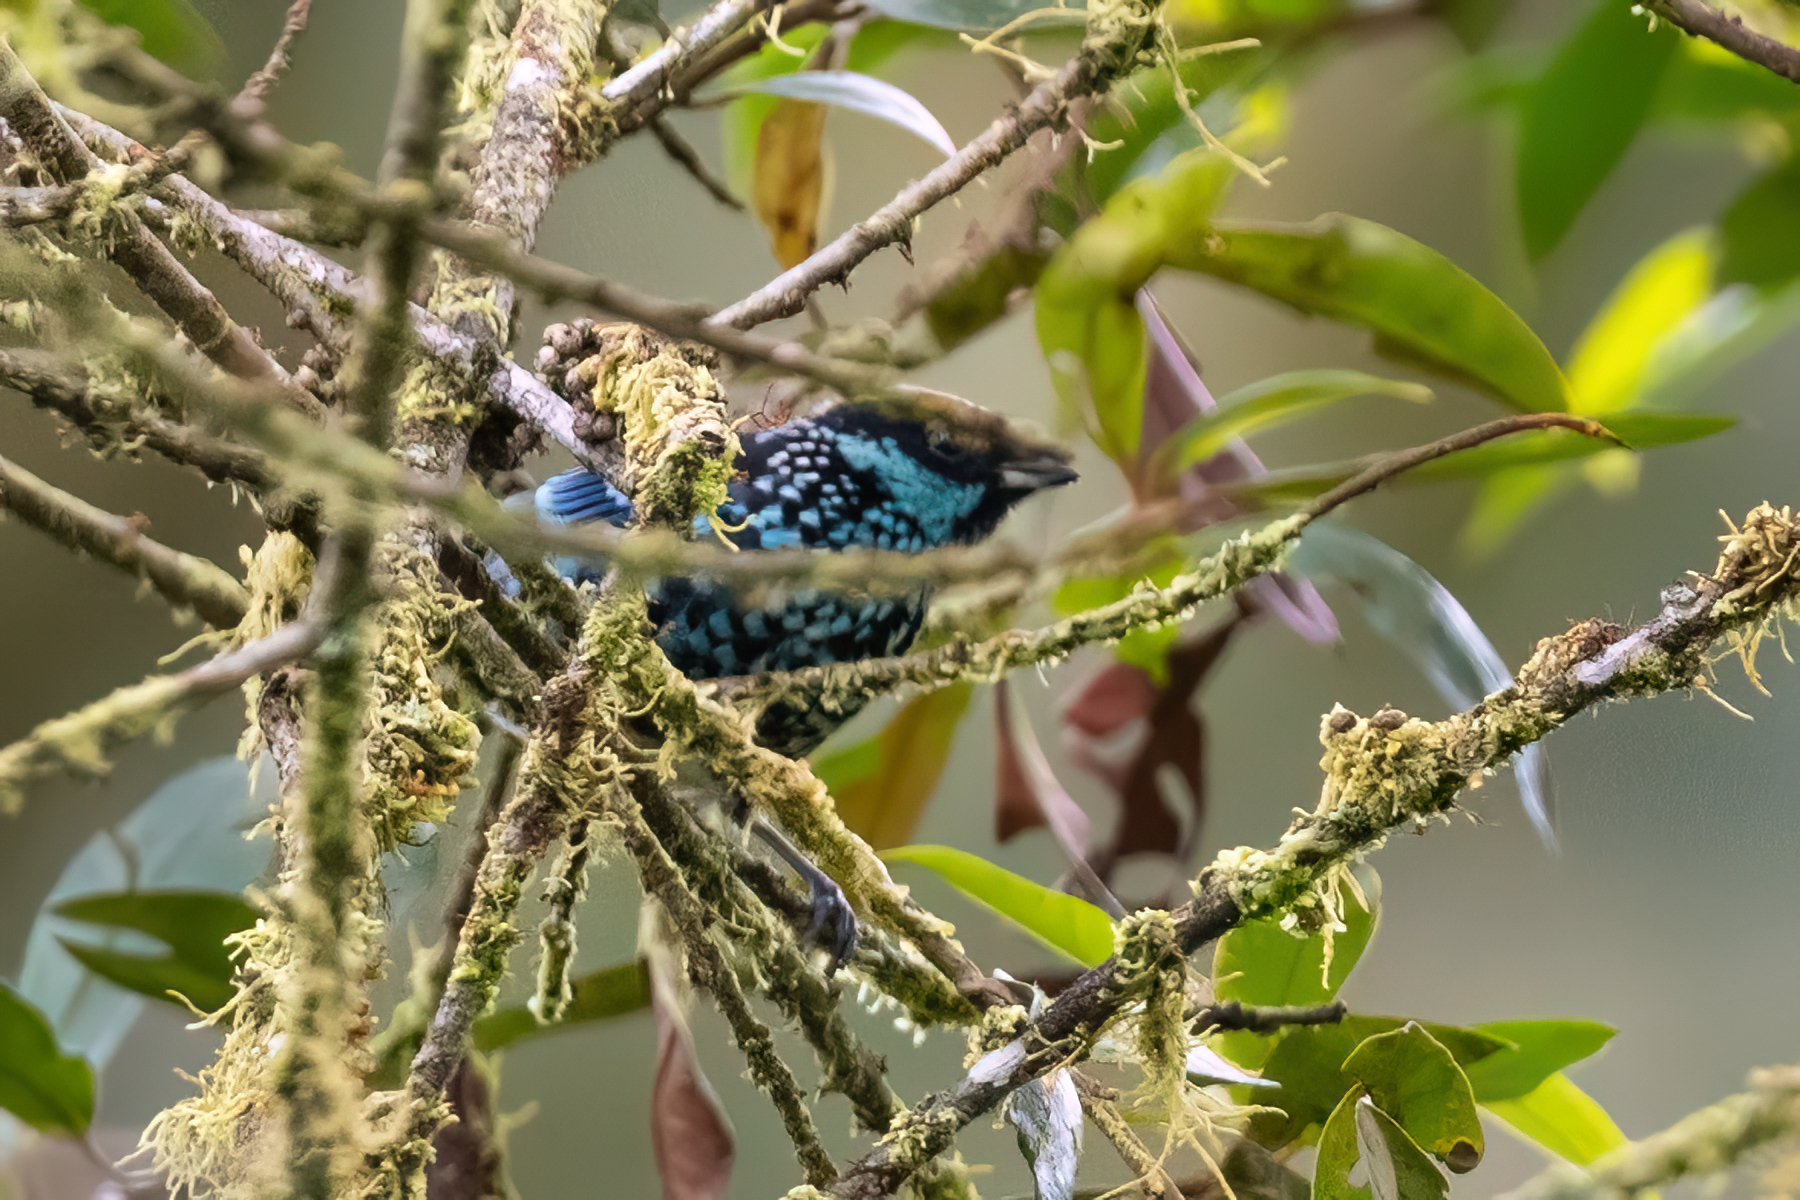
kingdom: Animalia
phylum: Chordata
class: Aves
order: Passeriformes
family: Thraupidae
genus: Tangara
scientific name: Tangara nigroviridis
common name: Beryl-spangled tanager
